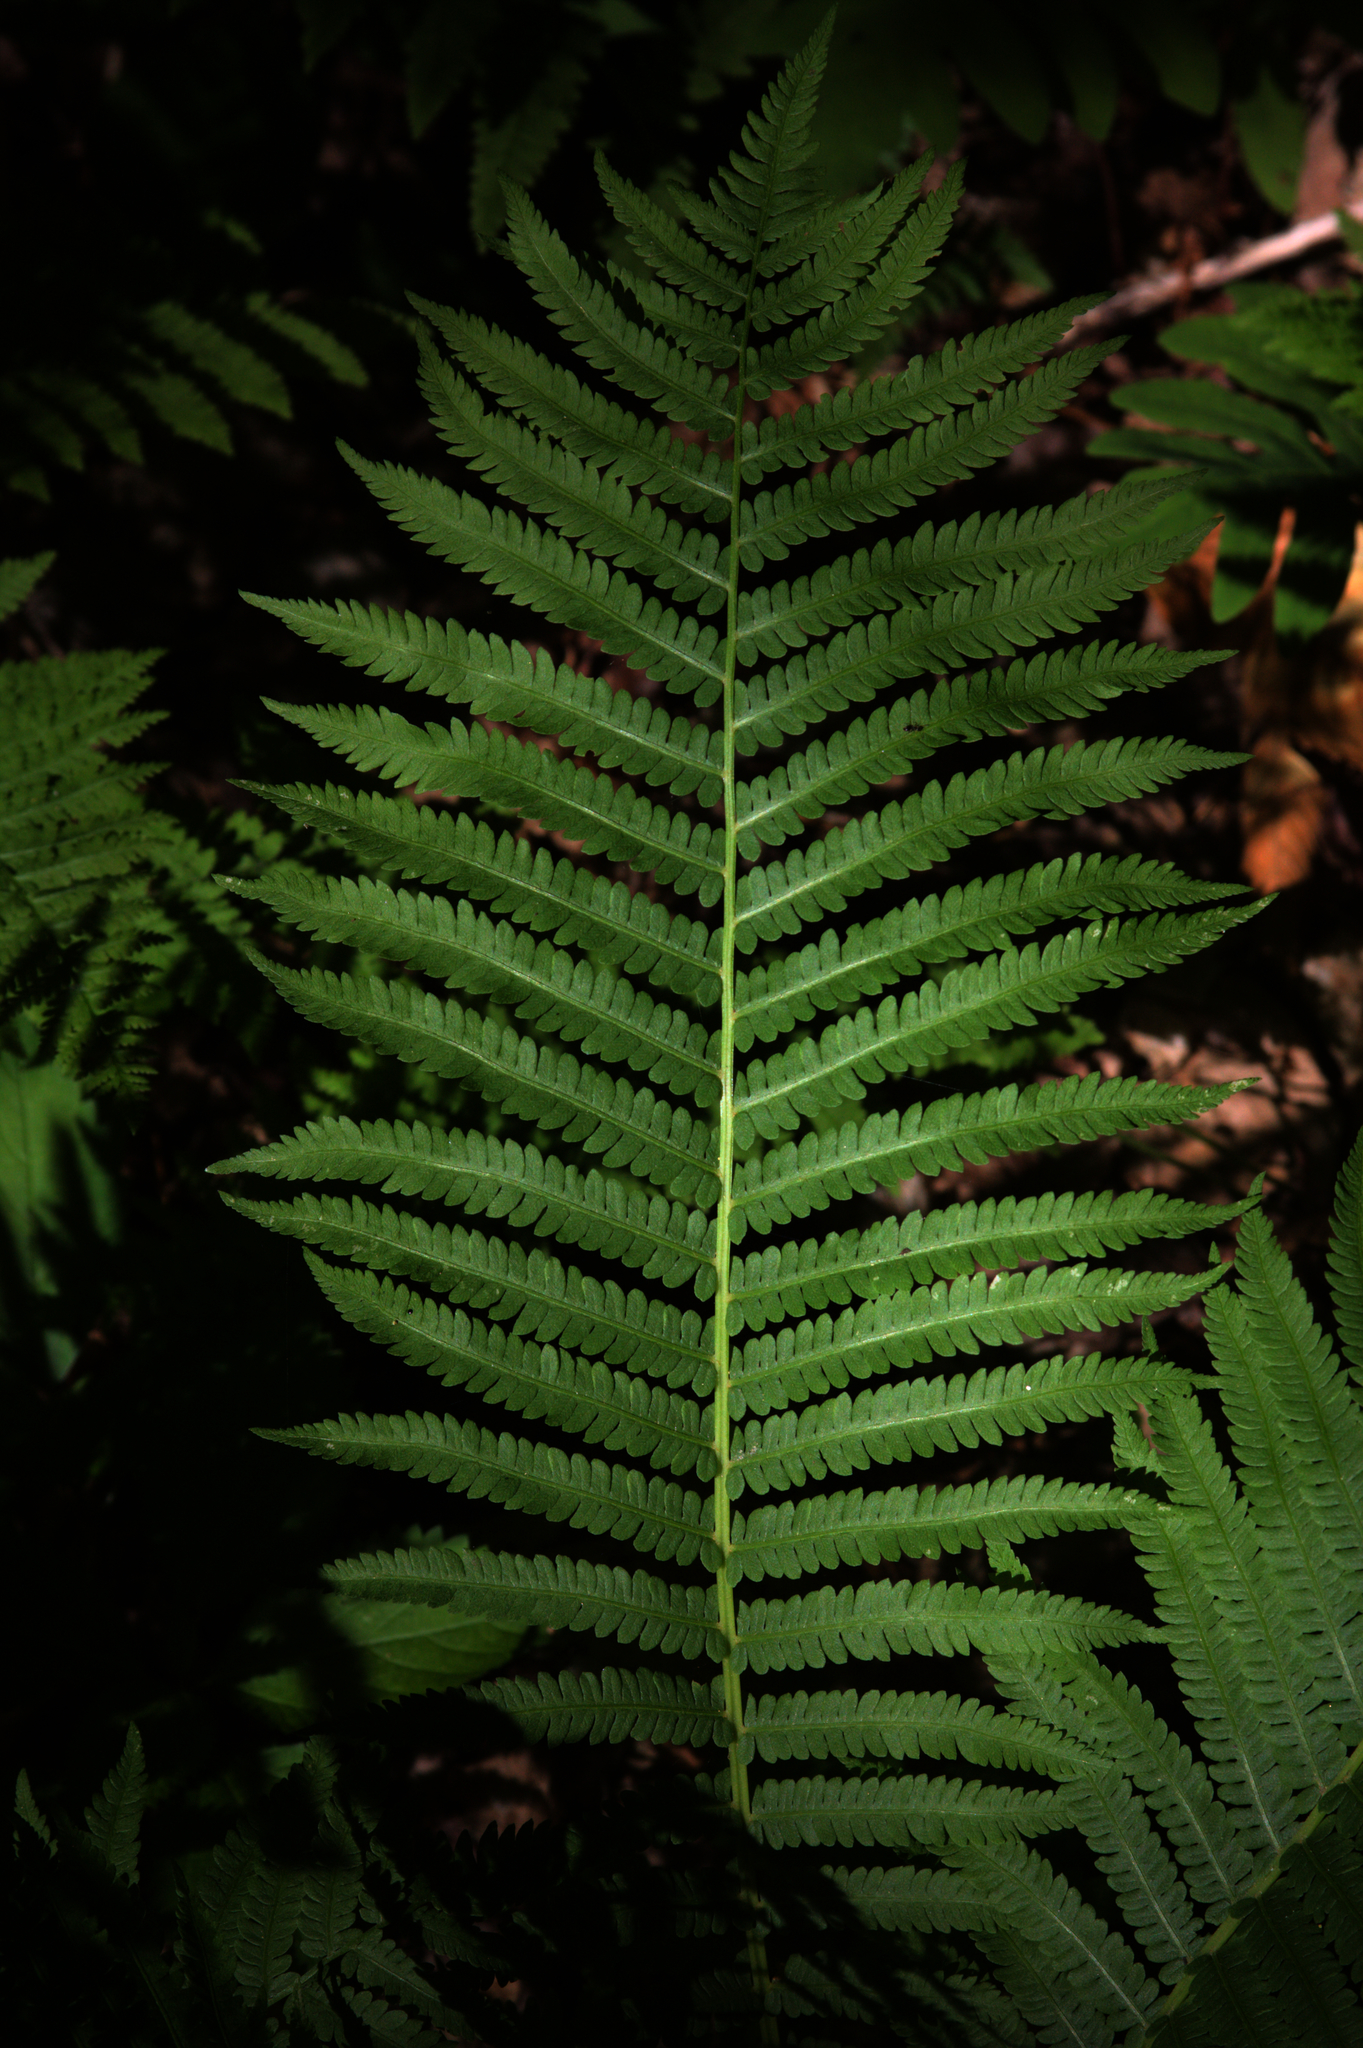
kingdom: Plantae
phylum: Tracheophyta
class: Polypodiopsida
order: Polypodiales
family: Onocleaceae
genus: Matteuccia
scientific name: Matteuccia struthiopteris
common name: Ostrich fern
